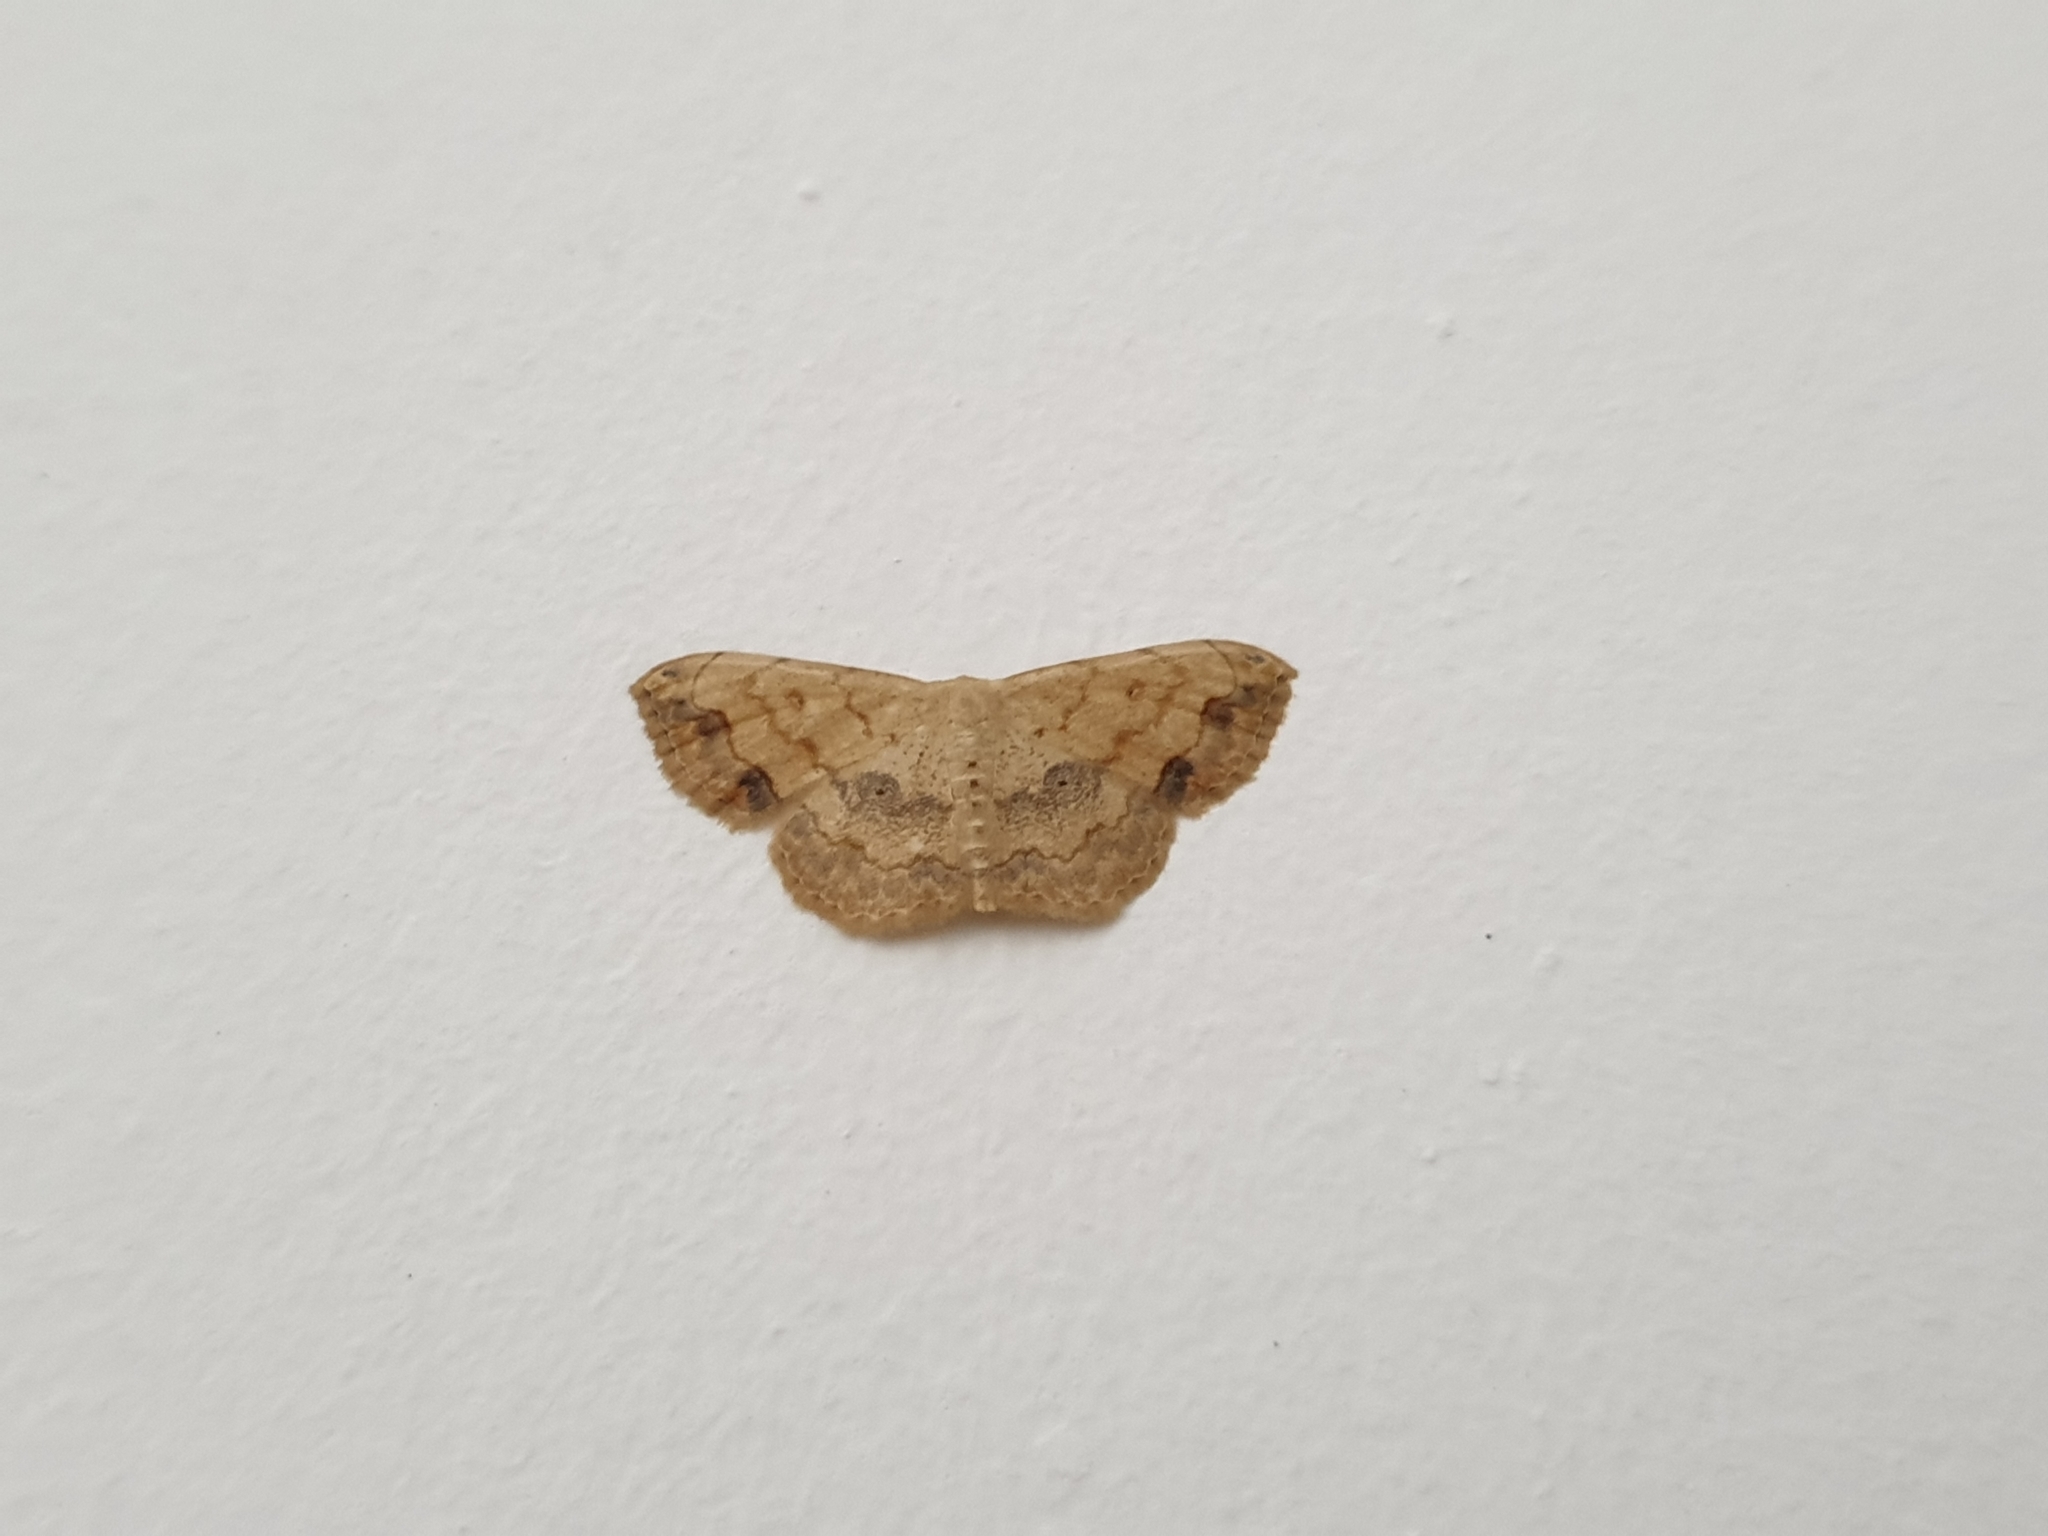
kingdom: Animalia
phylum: Arthropoda
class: Insecta
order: Lepidoptera
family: Geometridae
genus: Scopula
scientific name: Scopula addictaria
